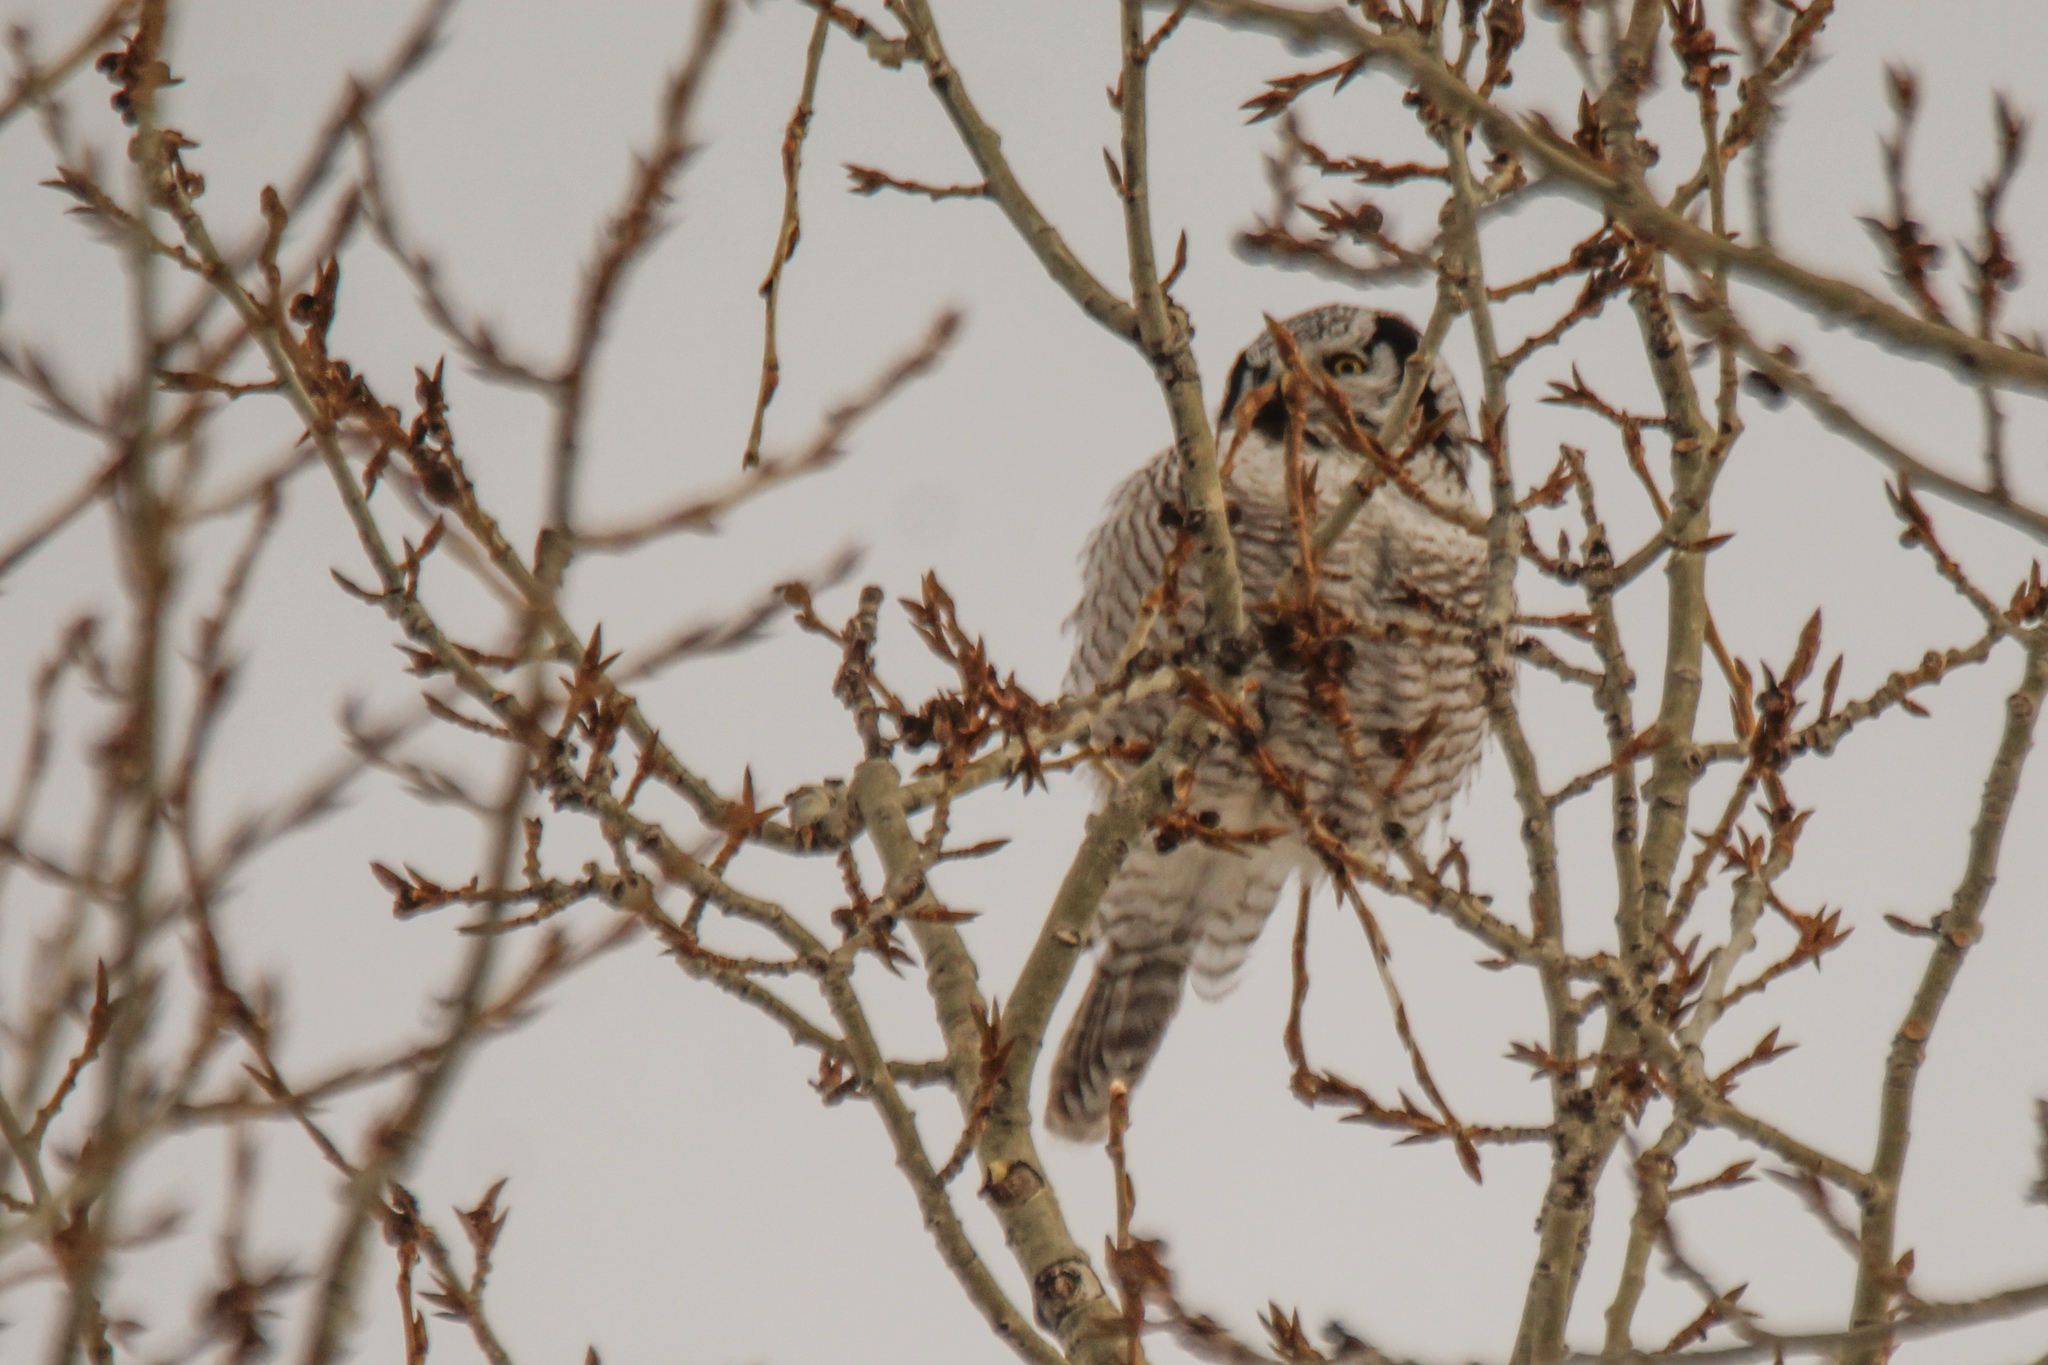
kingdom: Animalia
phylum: Chordata
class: Aves
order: Strigiformes
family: Strigidae
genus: Surnia
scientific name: Surnia ulula
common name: Northern hawk-owl
